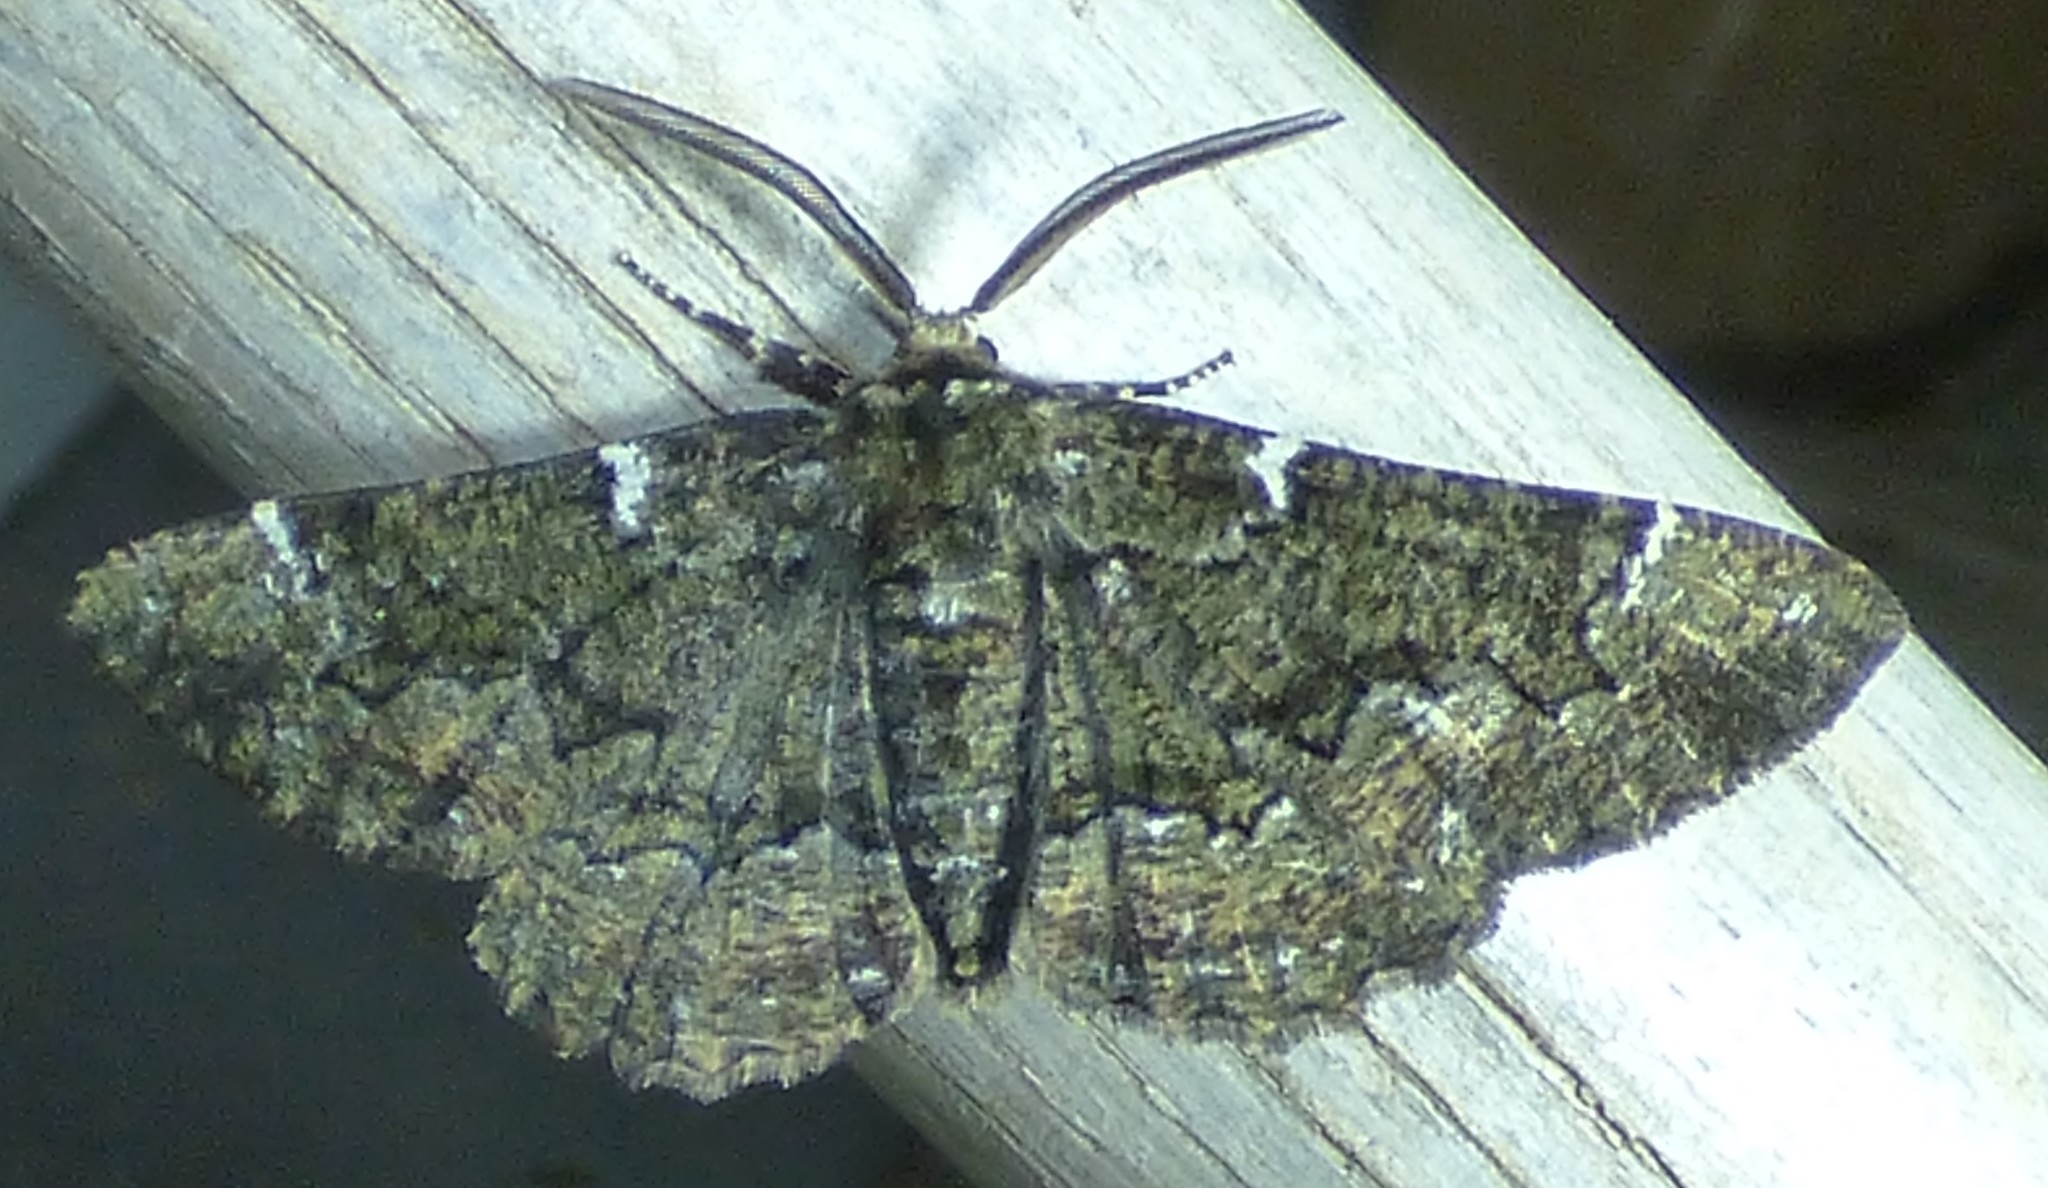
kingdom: Animalia
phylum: Arthropoda
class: Insecta
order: Lepidoptera
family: Geometridae
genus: Phaeoura
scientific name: Phaeoura quernaria
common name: Oak beauty
